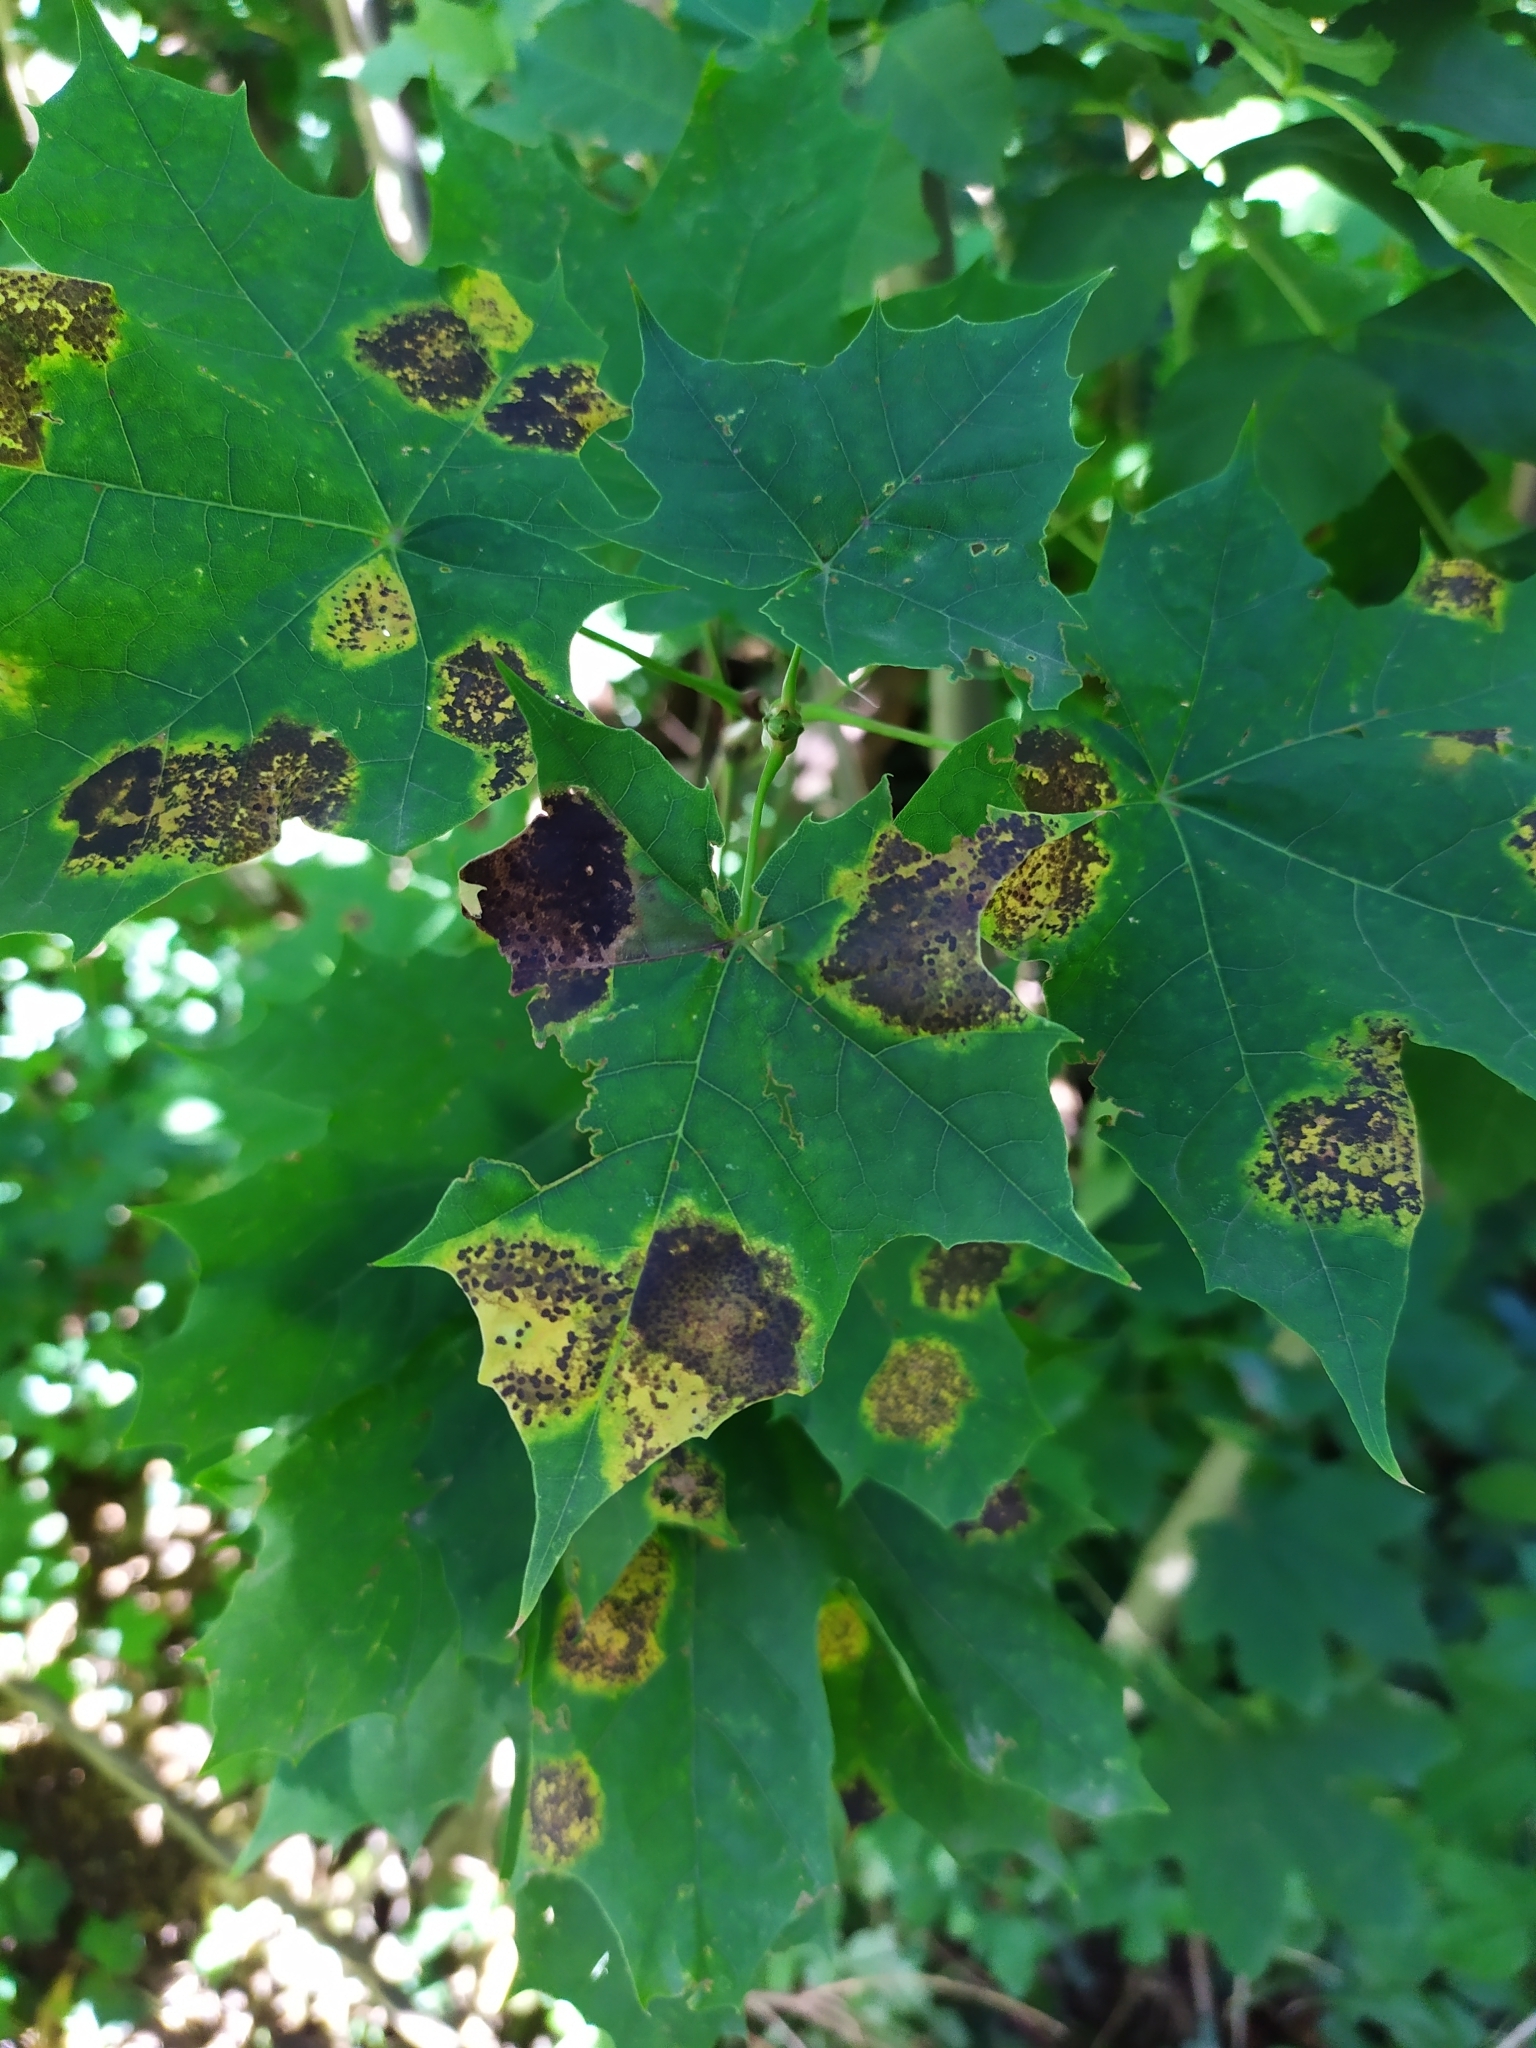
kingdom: Fungi
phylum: Ascomycota
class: Leotiomycetes
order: Rhytismatales
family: Rhytismataceae
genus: Rhytisma
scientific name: Rhytisma acerinum
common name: European tar spot
